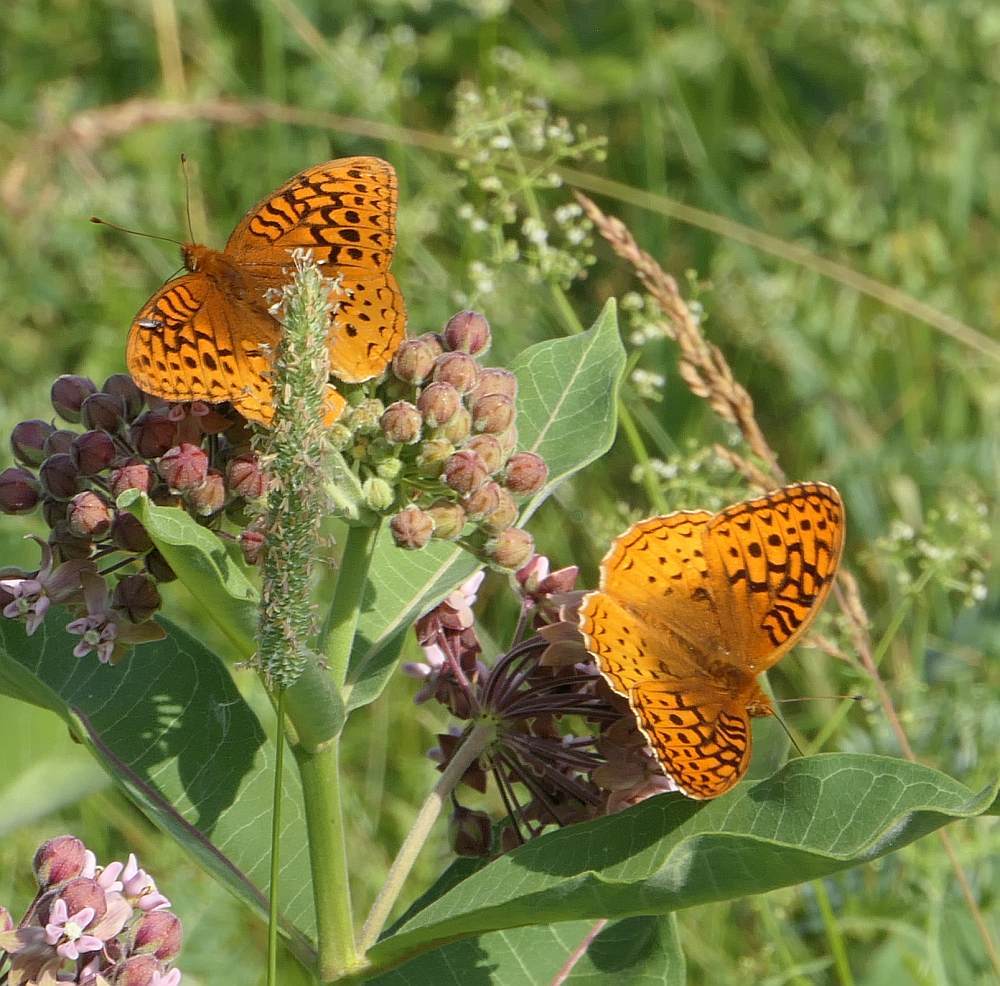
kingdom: Animalia
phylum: Arthropoda
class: Insecta
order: Lepidoptera
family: Nymphalidae
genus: Speyeria
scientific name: Speyeria cybele
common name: Great spangled fritillary
